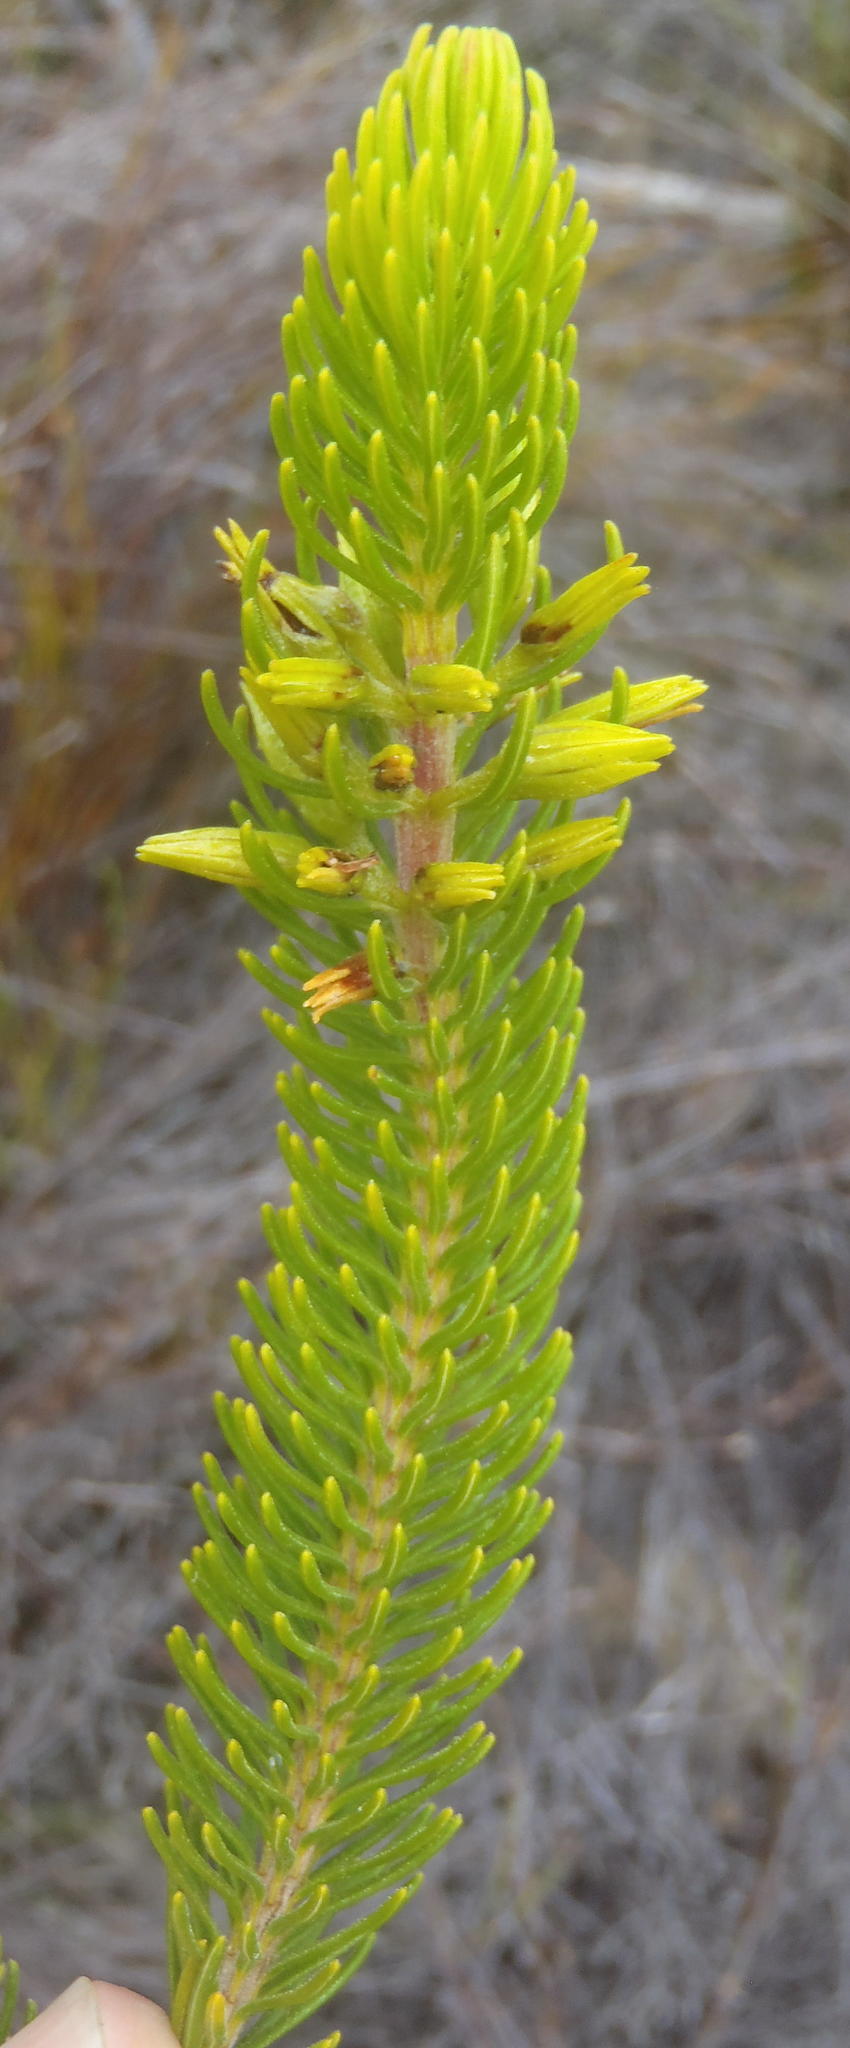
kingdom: Plantae
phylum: Tracheophyta
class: Magnoliopsida
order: Ericales
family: Ericaceae
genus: Erica
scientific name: Erica viscaria
